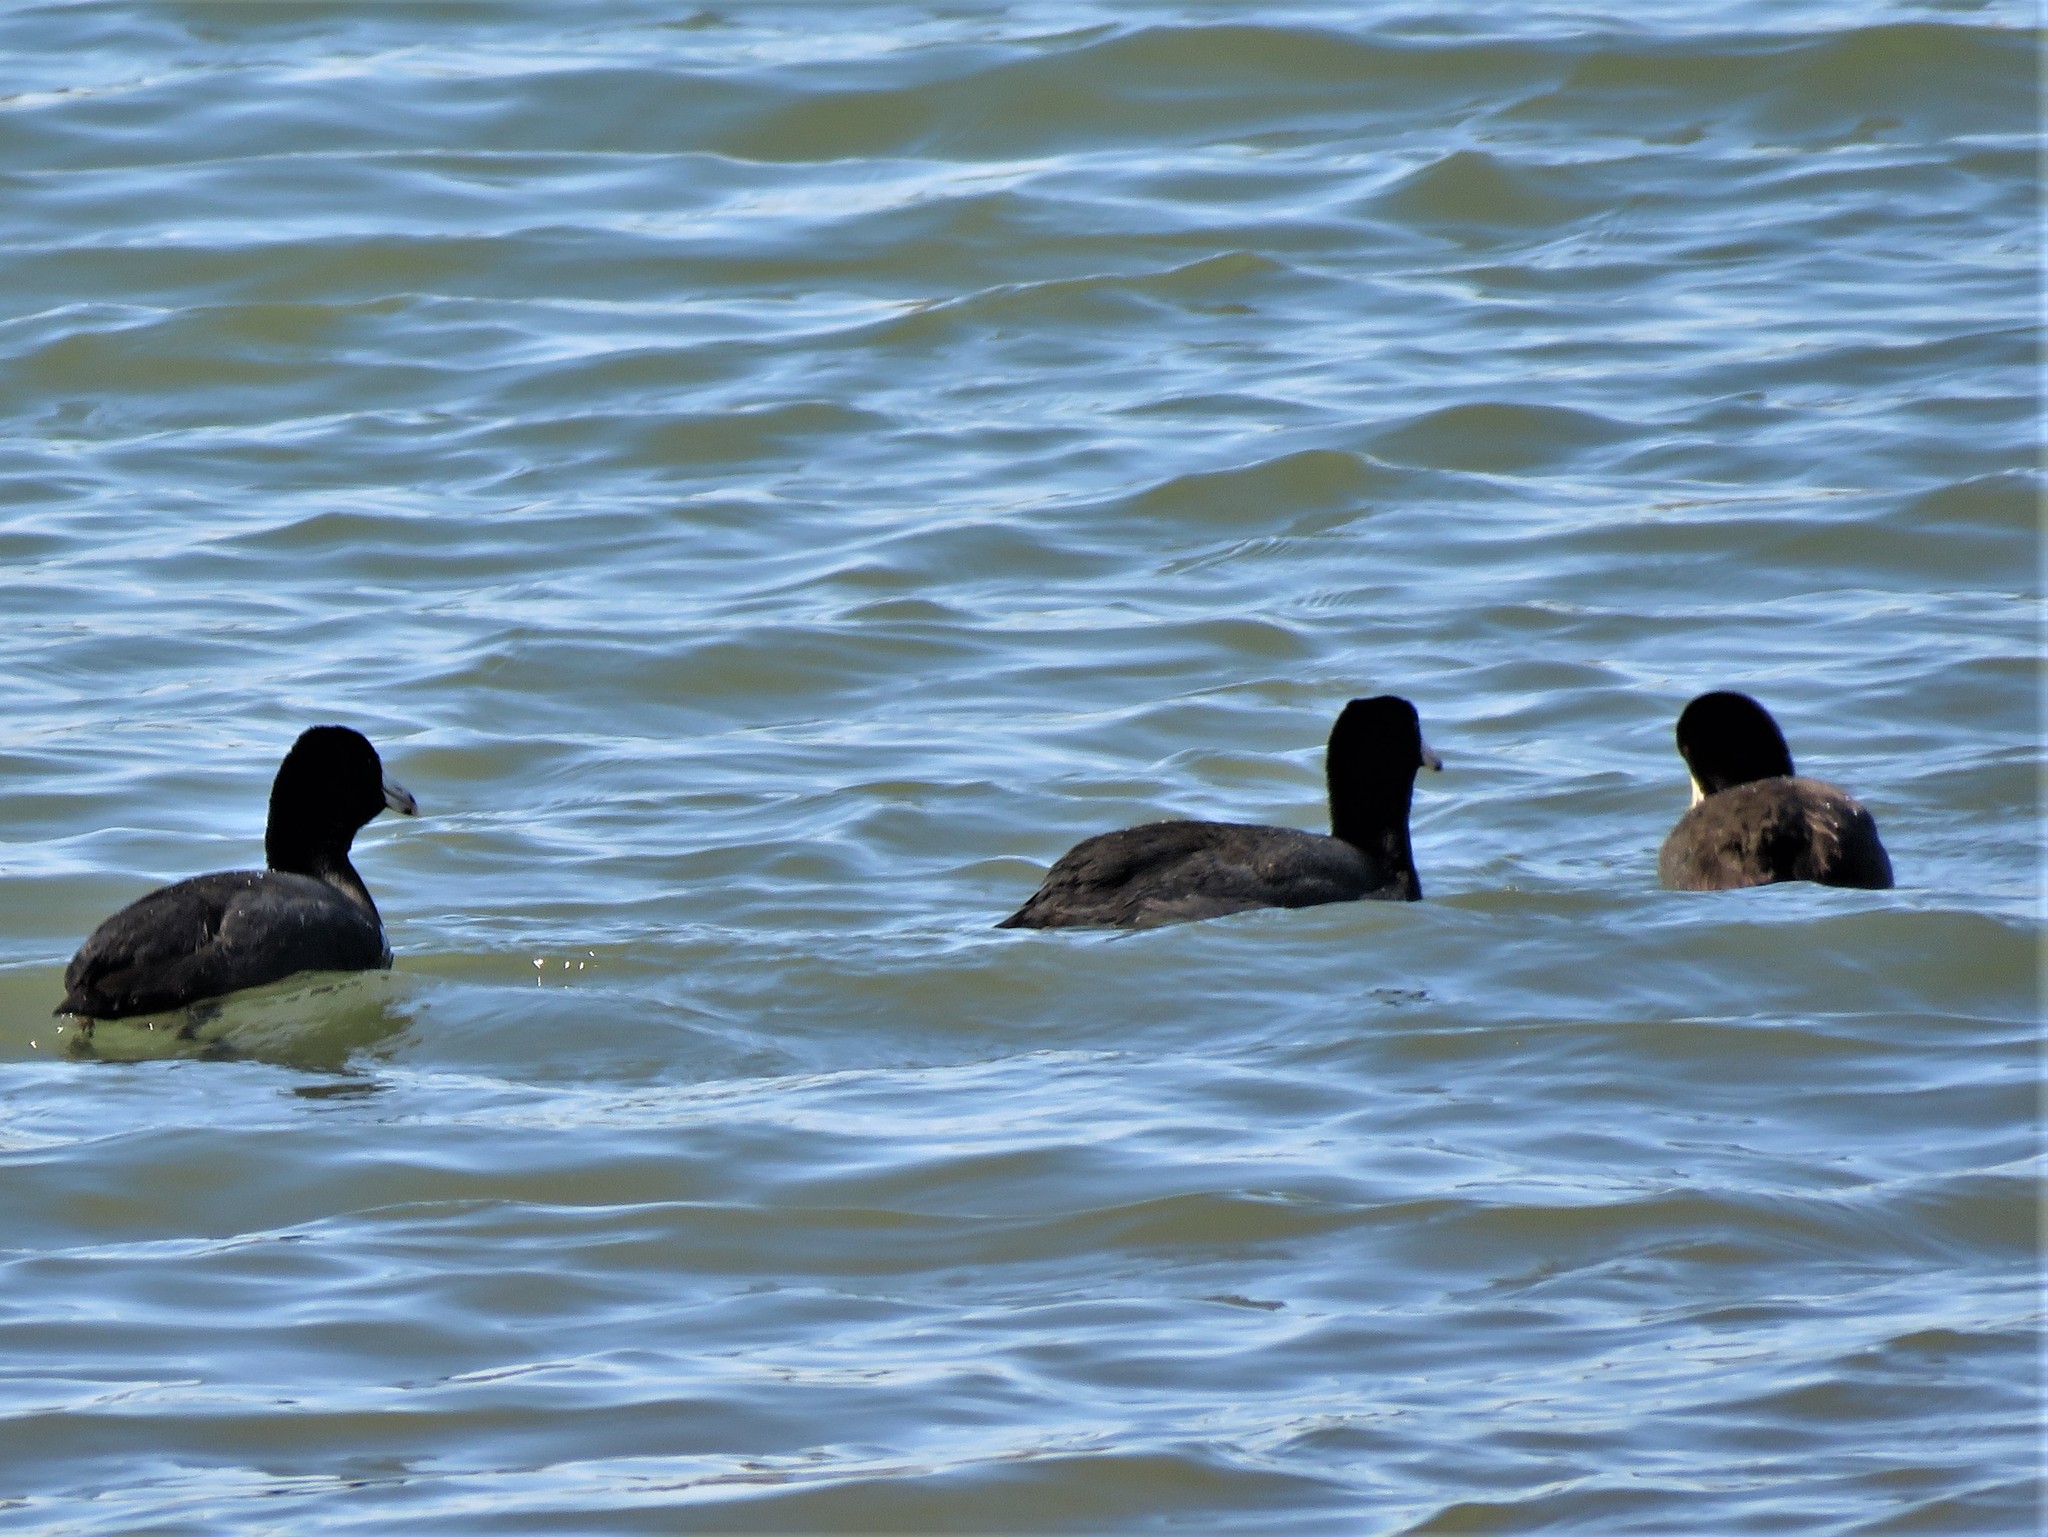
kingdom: Animalia
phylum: Chordata
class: Aves
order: Gruiformes
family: Rallidae
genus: Fulica
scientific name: Fulica americana
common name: American coot
